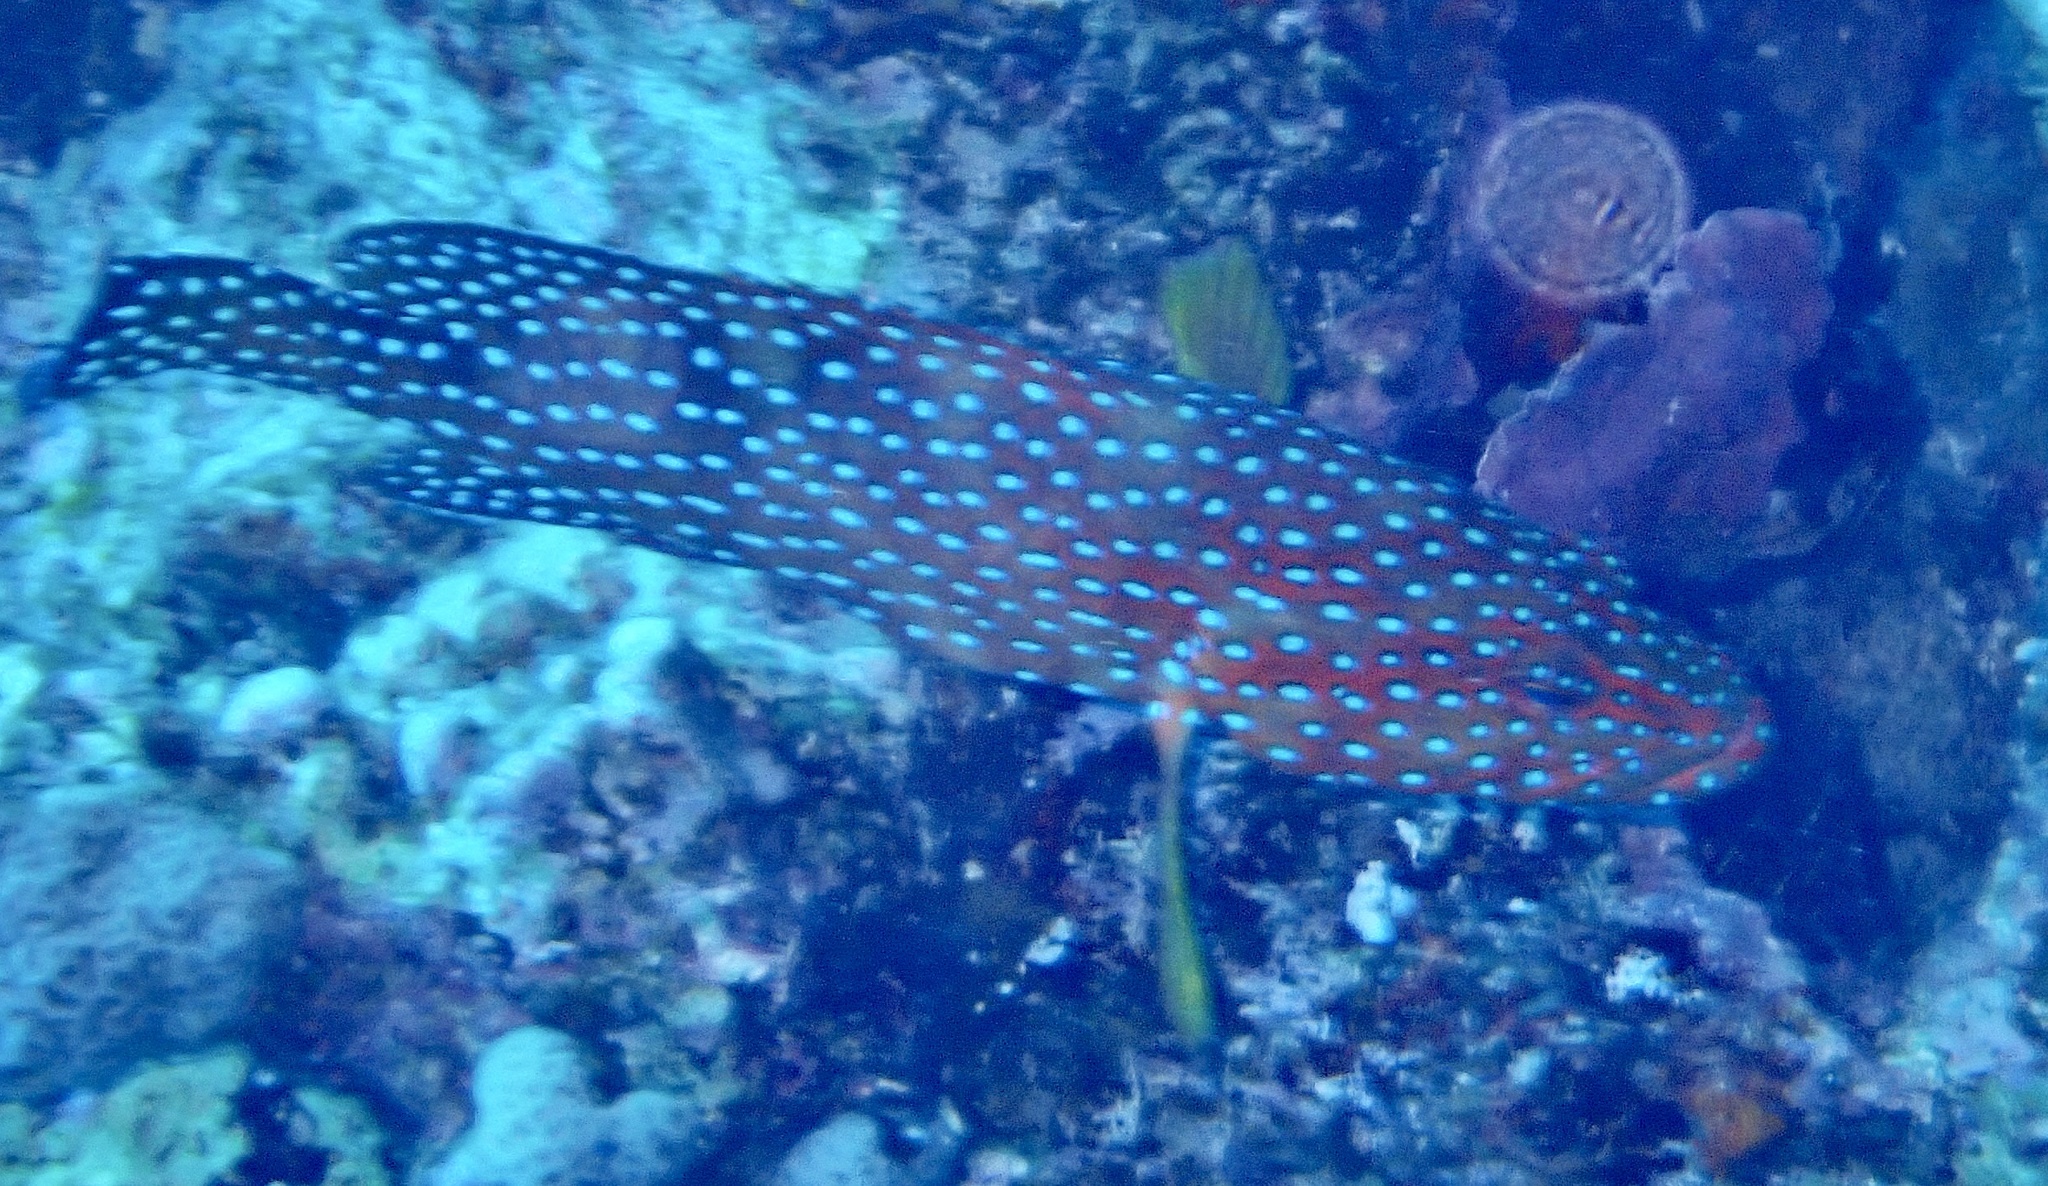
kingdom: Animalia
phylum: Chordata
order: Perciformes
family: Serranidae
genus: Cephalopholis
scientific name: Cephalopholis miniata
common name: Coral hind
